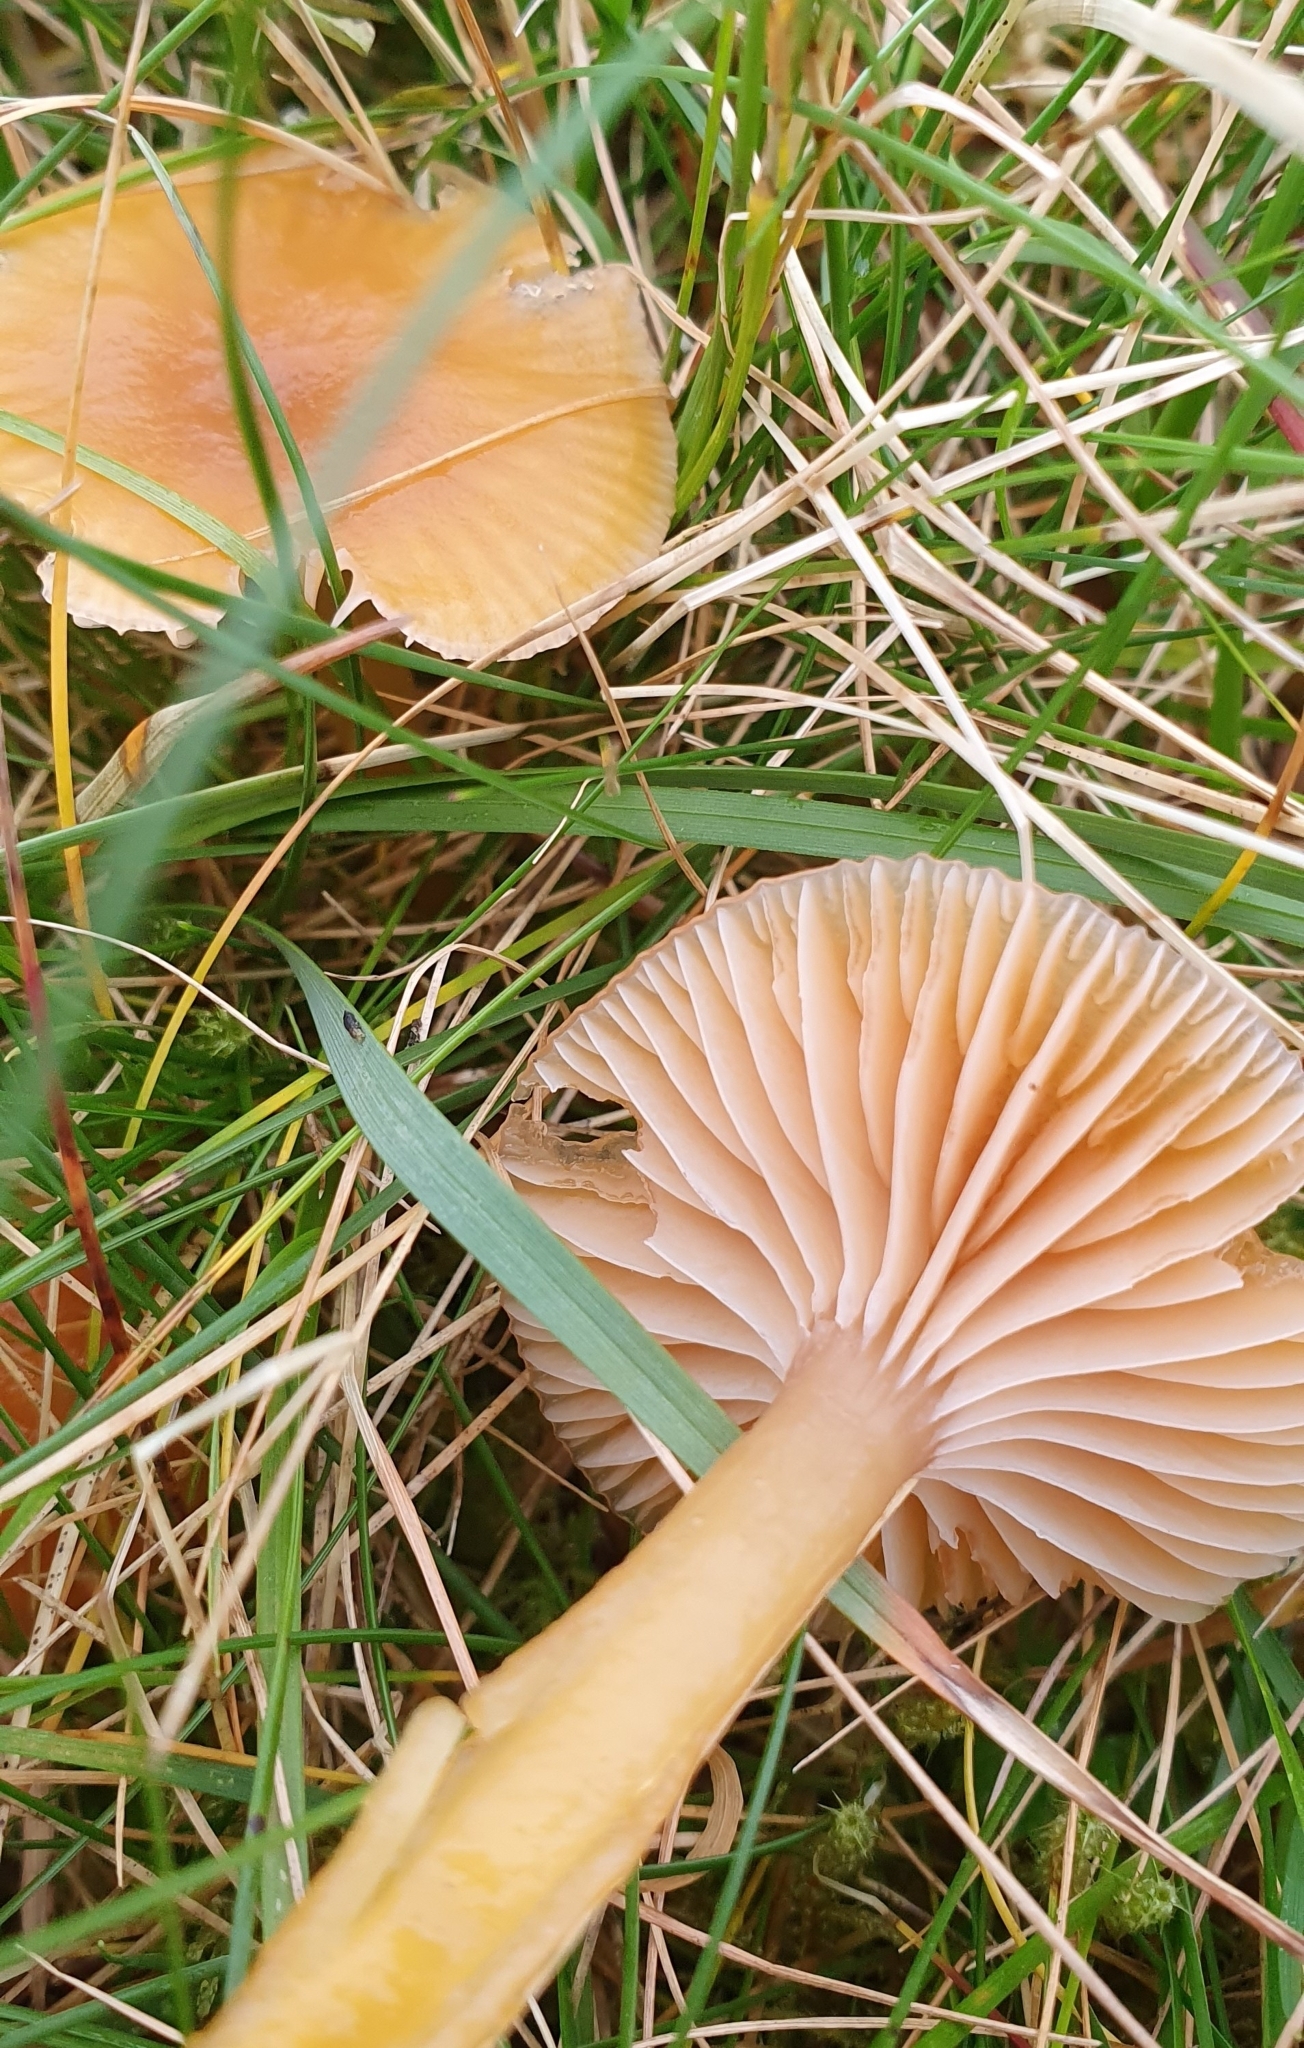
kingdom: Fungi
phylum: Basidiomycota
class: Agaricomycetes
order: Agaricales
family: Hygrophoraceae
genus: Gliophorus
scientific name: Gliophorus laetus
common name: Heath waxcap
